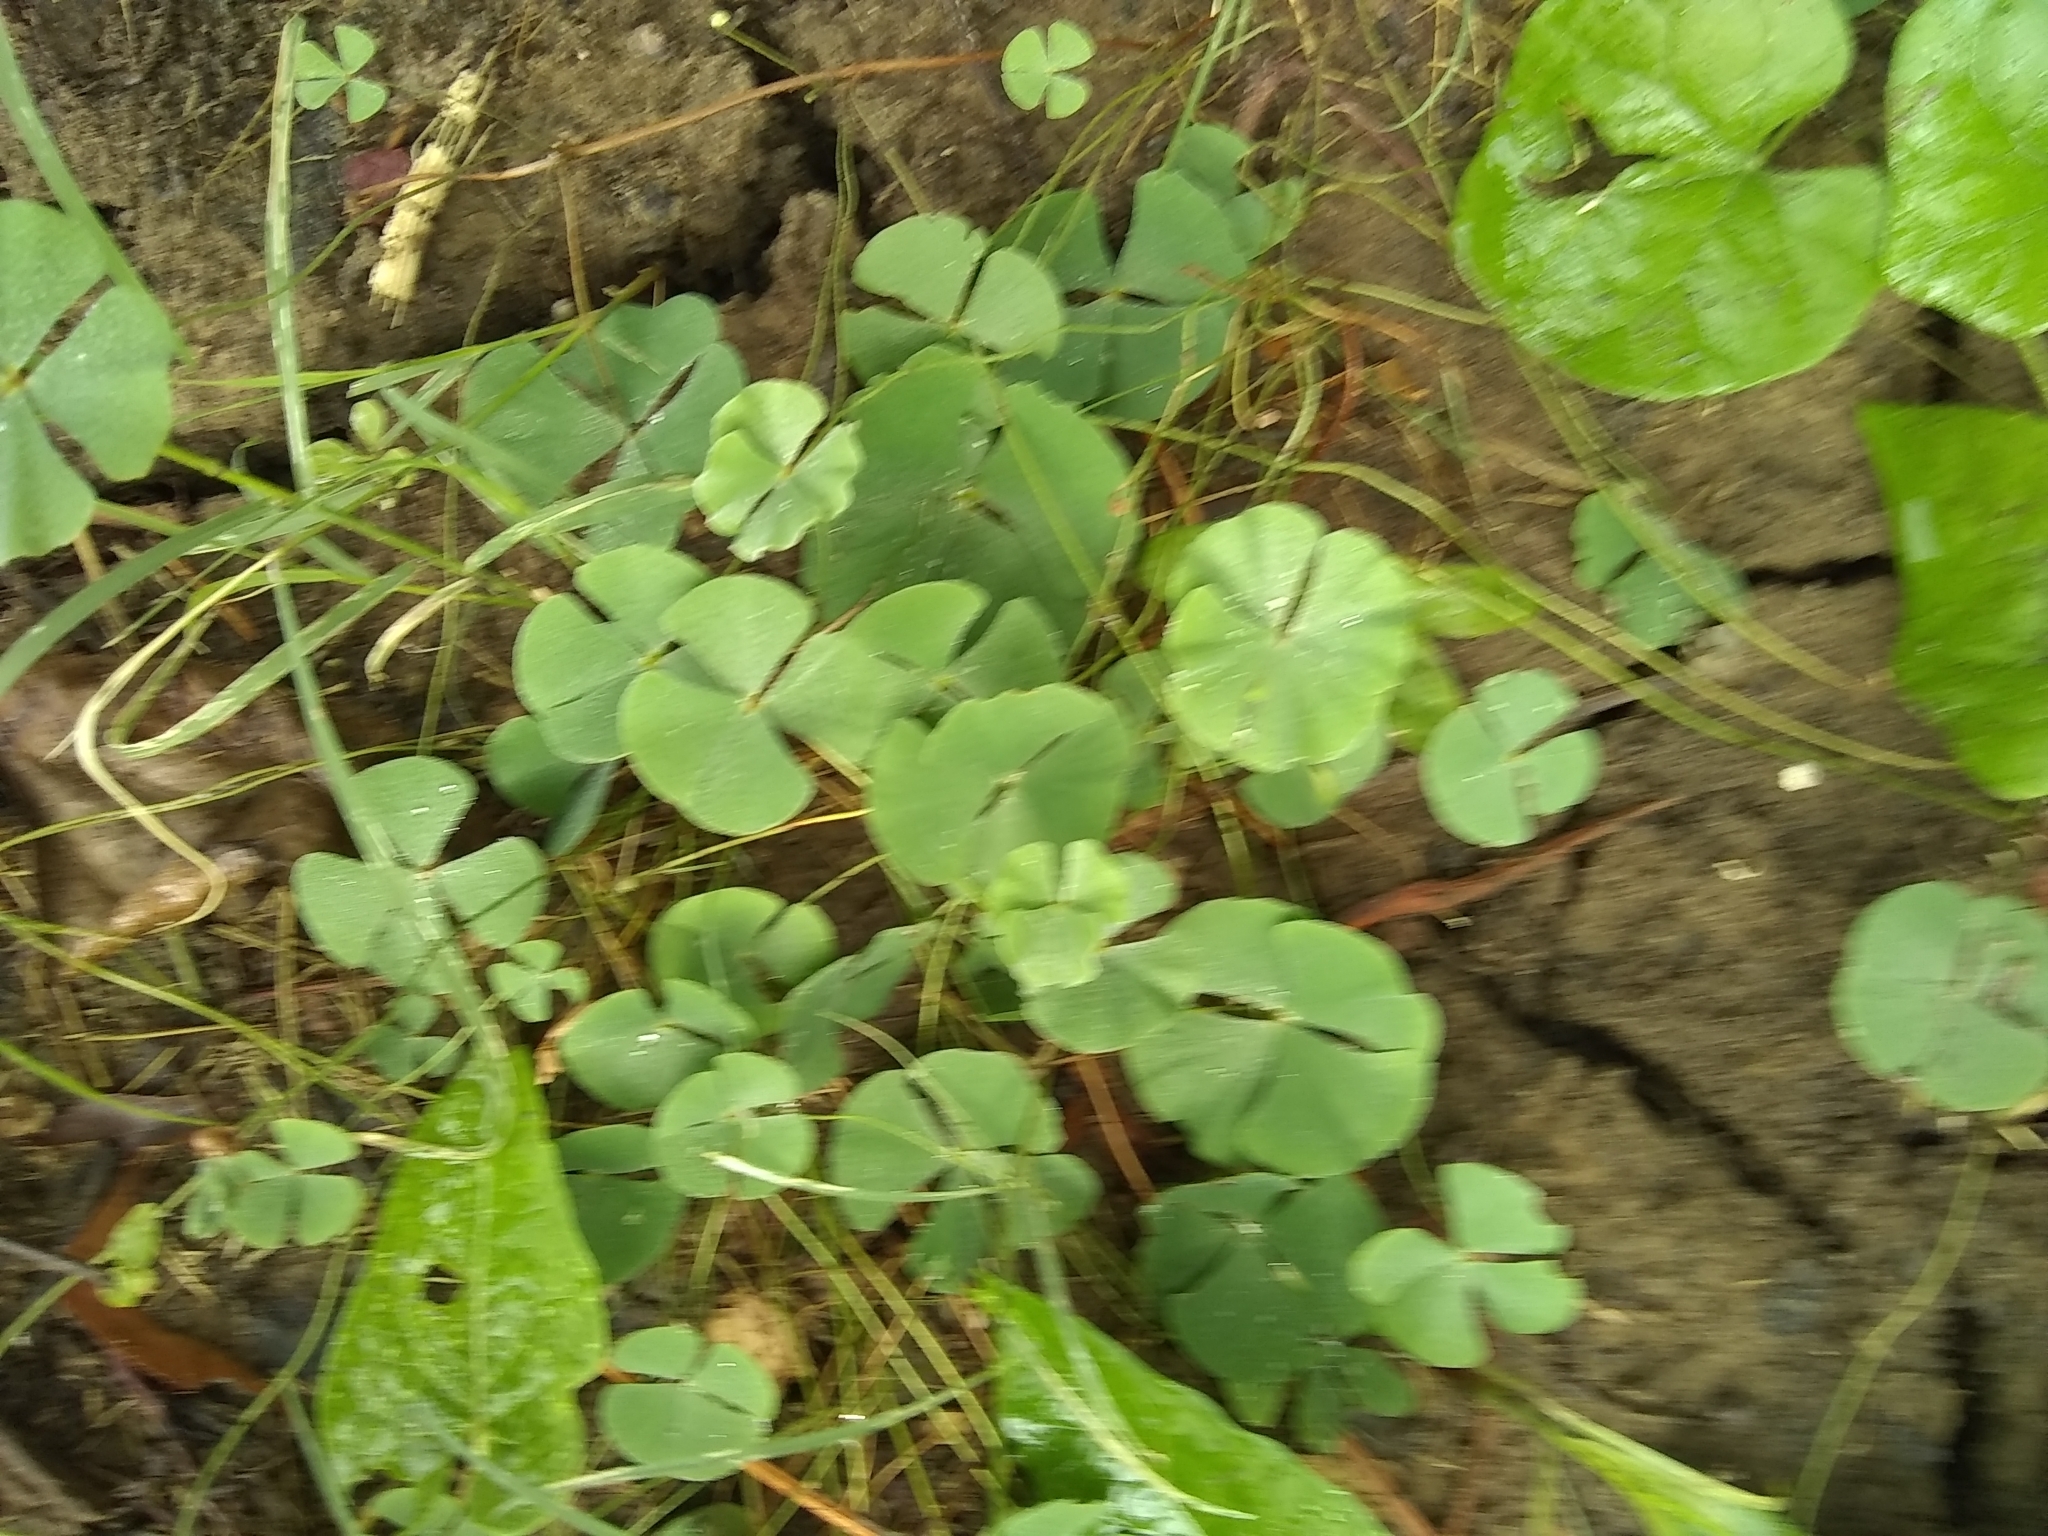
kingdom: Plantae
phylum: Tracheophyta
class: Polypodiopsida
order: Salviniales
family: Marsileaceae
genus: Marsilea
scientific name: Marsilea vestita
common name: Hooked-pepperwort
